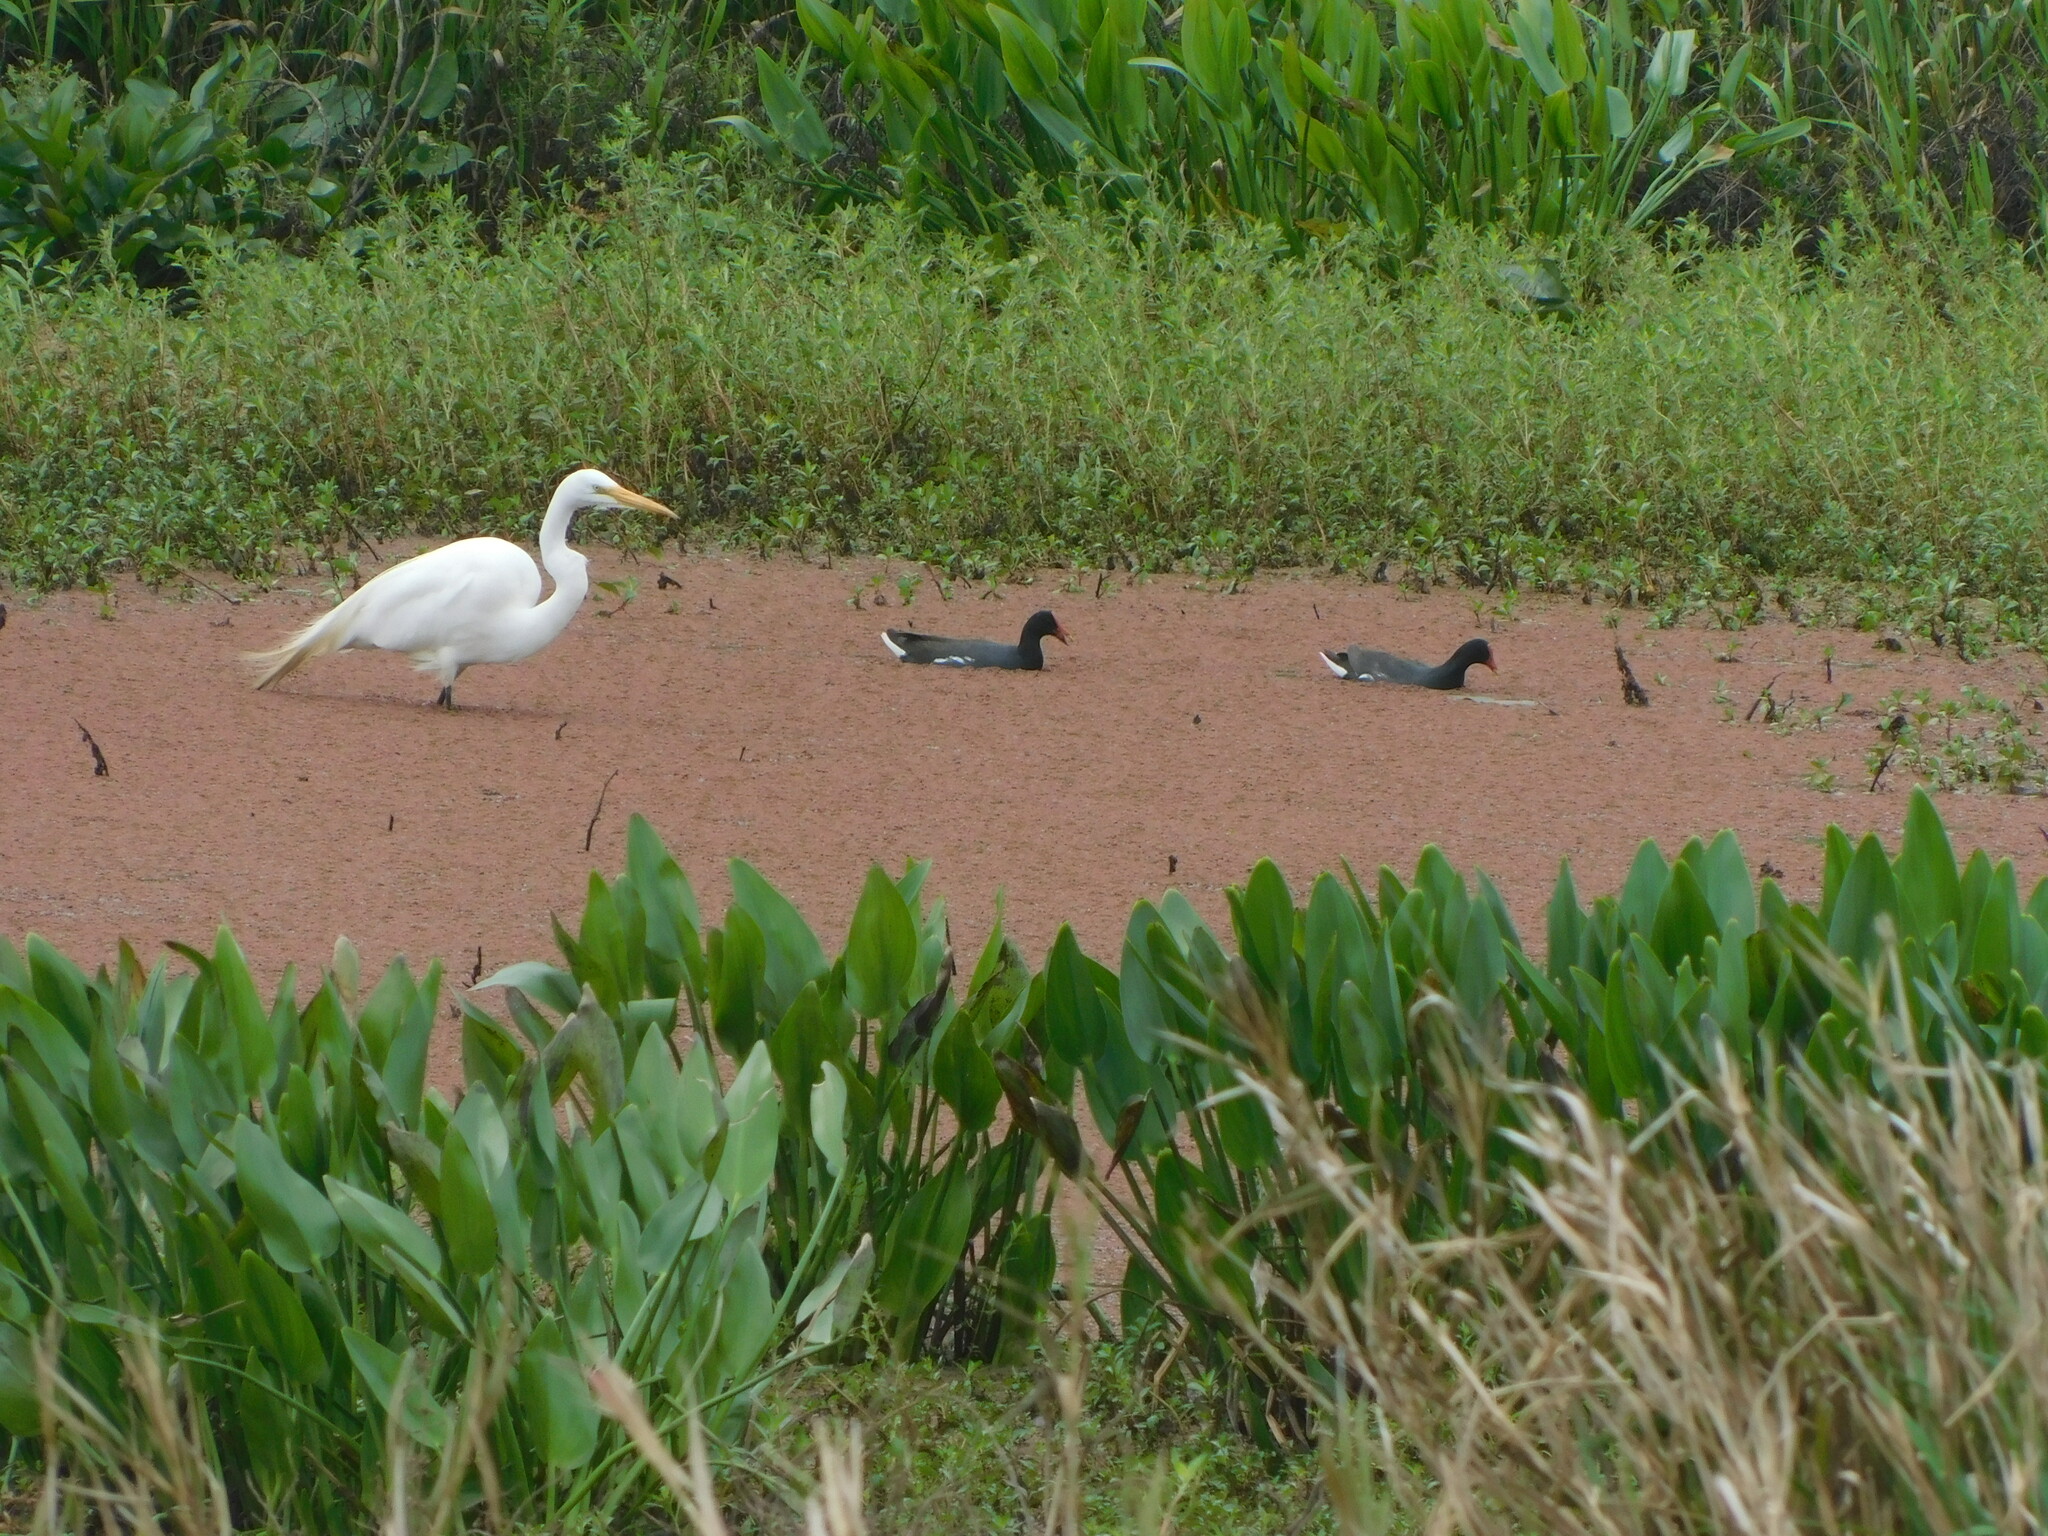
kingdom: Animalia
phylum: Chordata
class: Aves
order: Gruiformes
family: Rallidae
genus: Gallinula
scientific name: Gallinula chloropus
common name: Common moorhen
